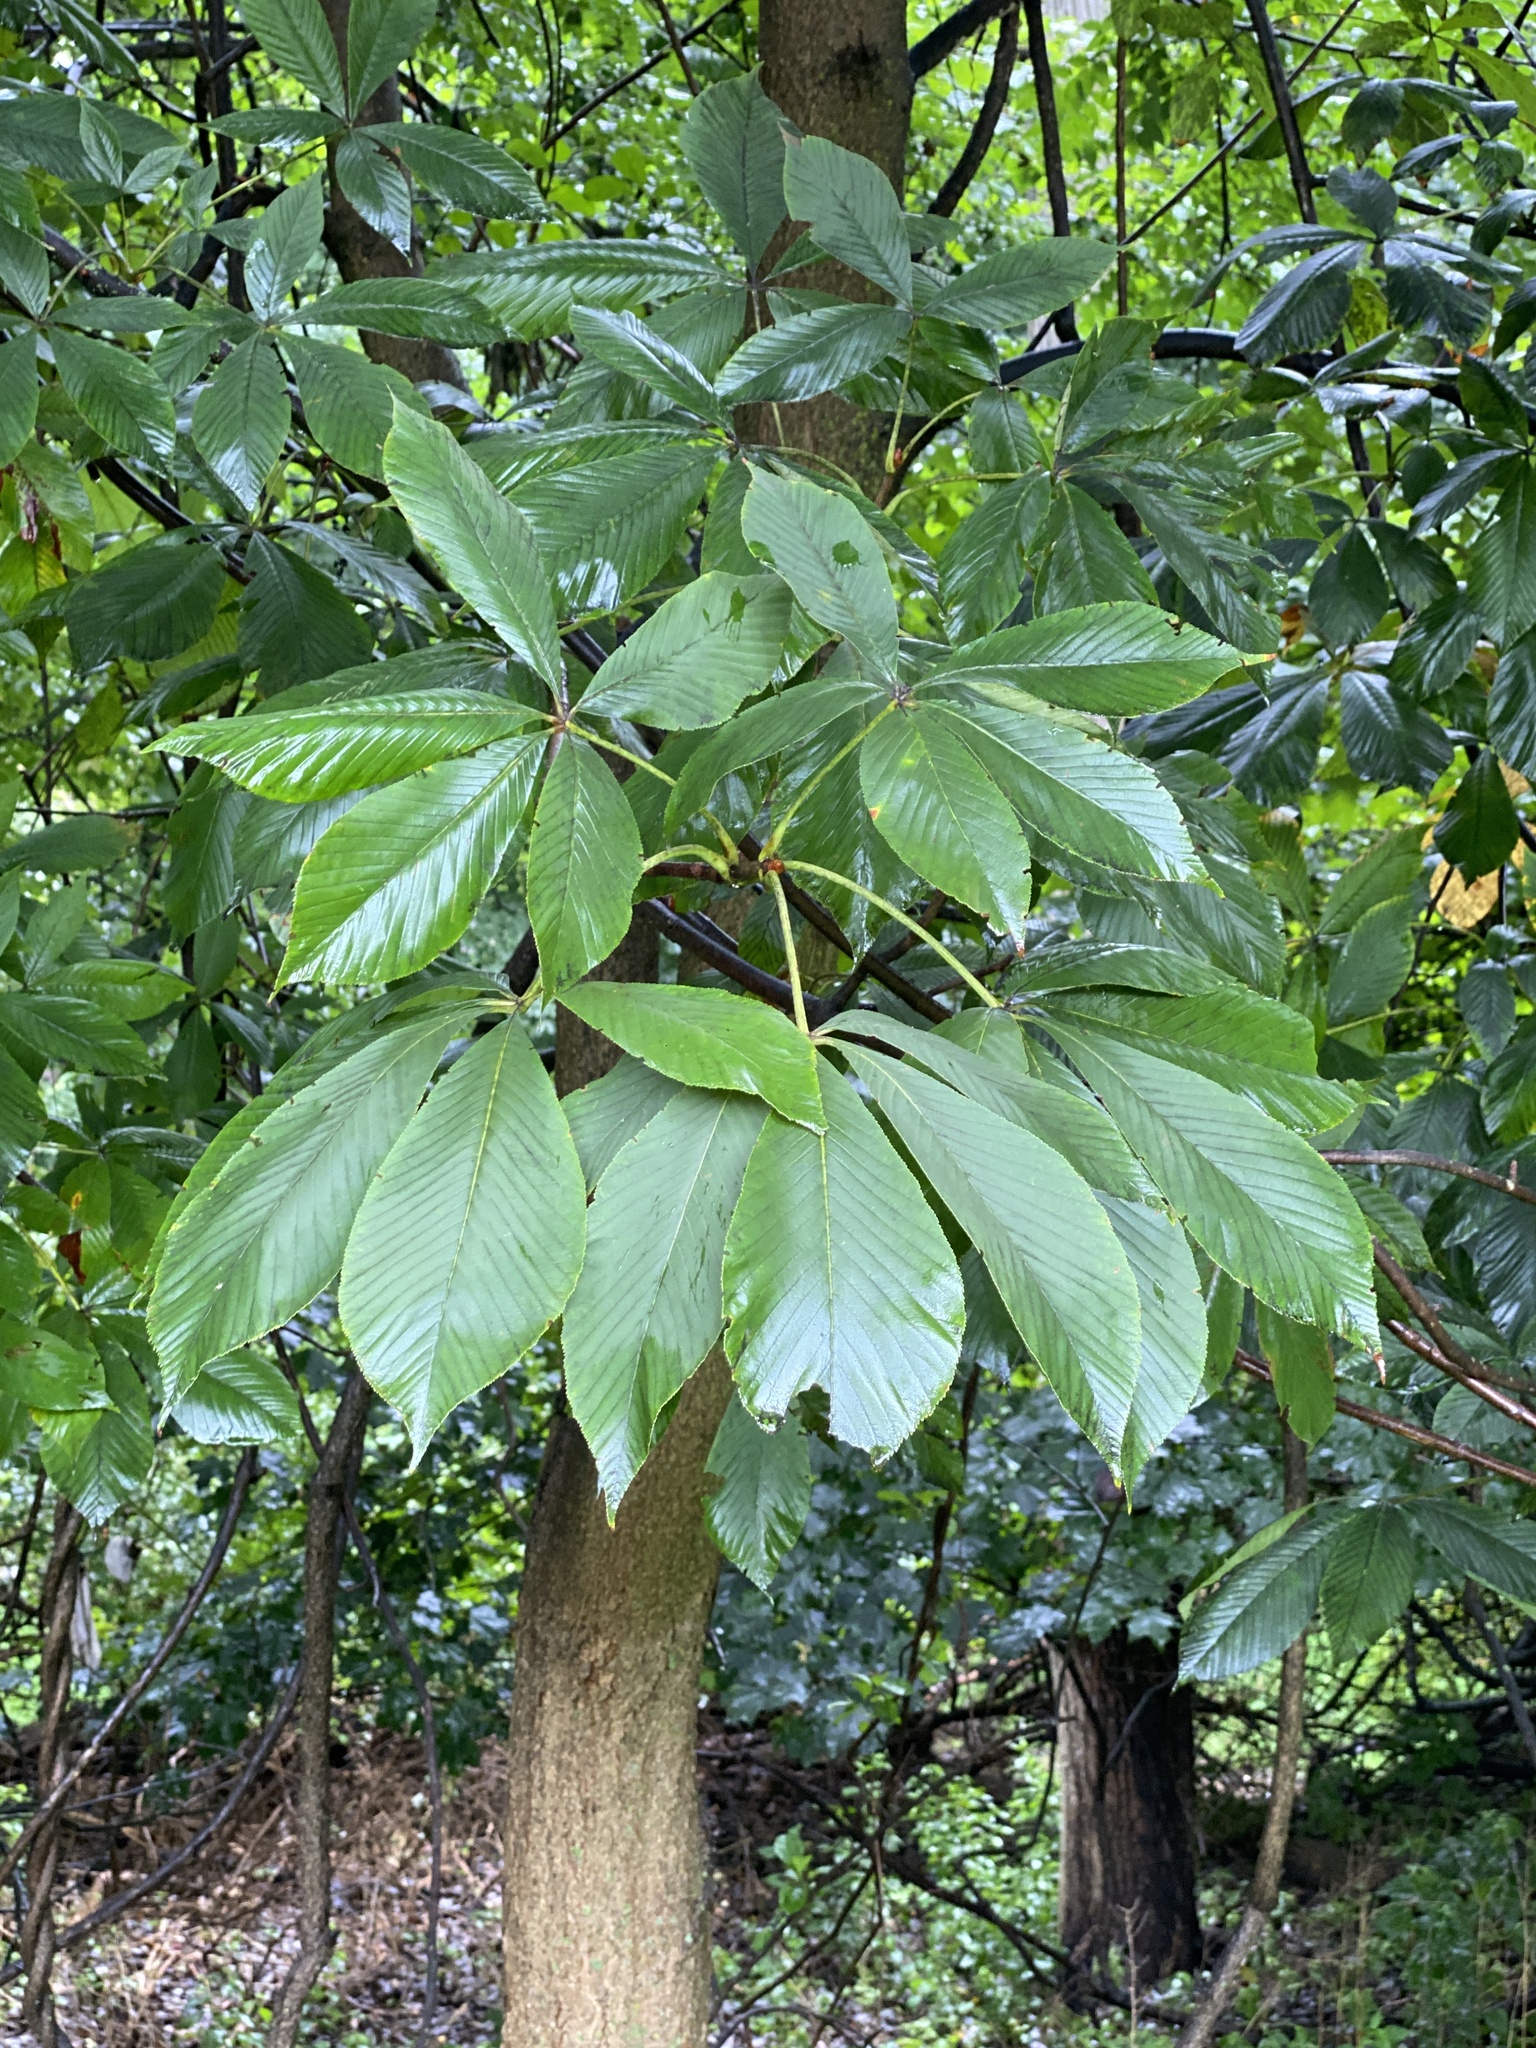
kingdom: Plantae
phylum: Tracheophyta
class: Magnoliopsida
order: Sapindales
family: Sapindaceae
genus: Aesculus
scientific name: Aesculus flava
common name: Yellow buckeye
